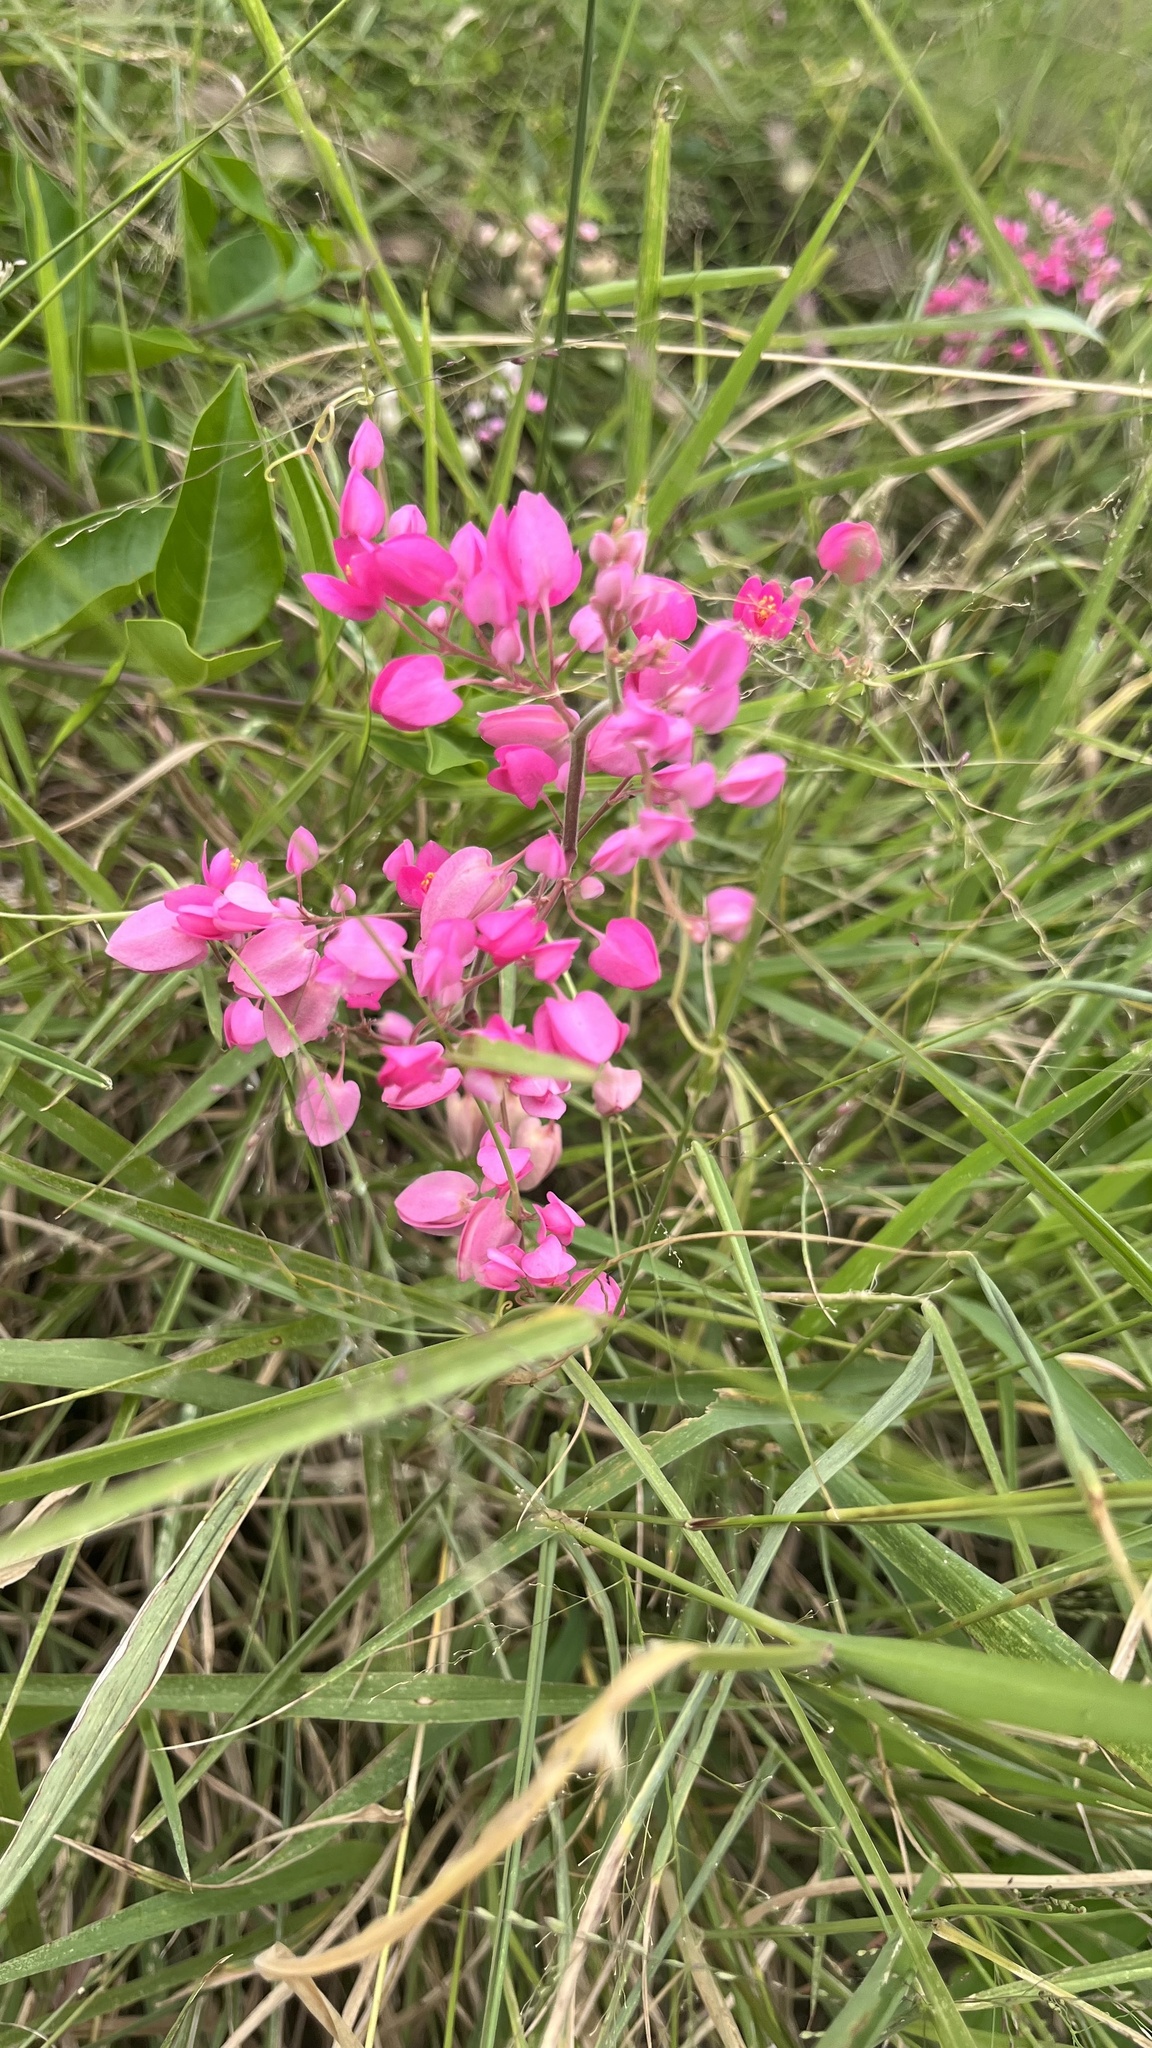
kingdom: Plantae
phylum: Tracheophyta
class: Magnoliopsida
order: Caryophyllales
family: Polygonaceae
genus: Antigonon
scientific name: Antigonon leptopus
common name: Coral vine
